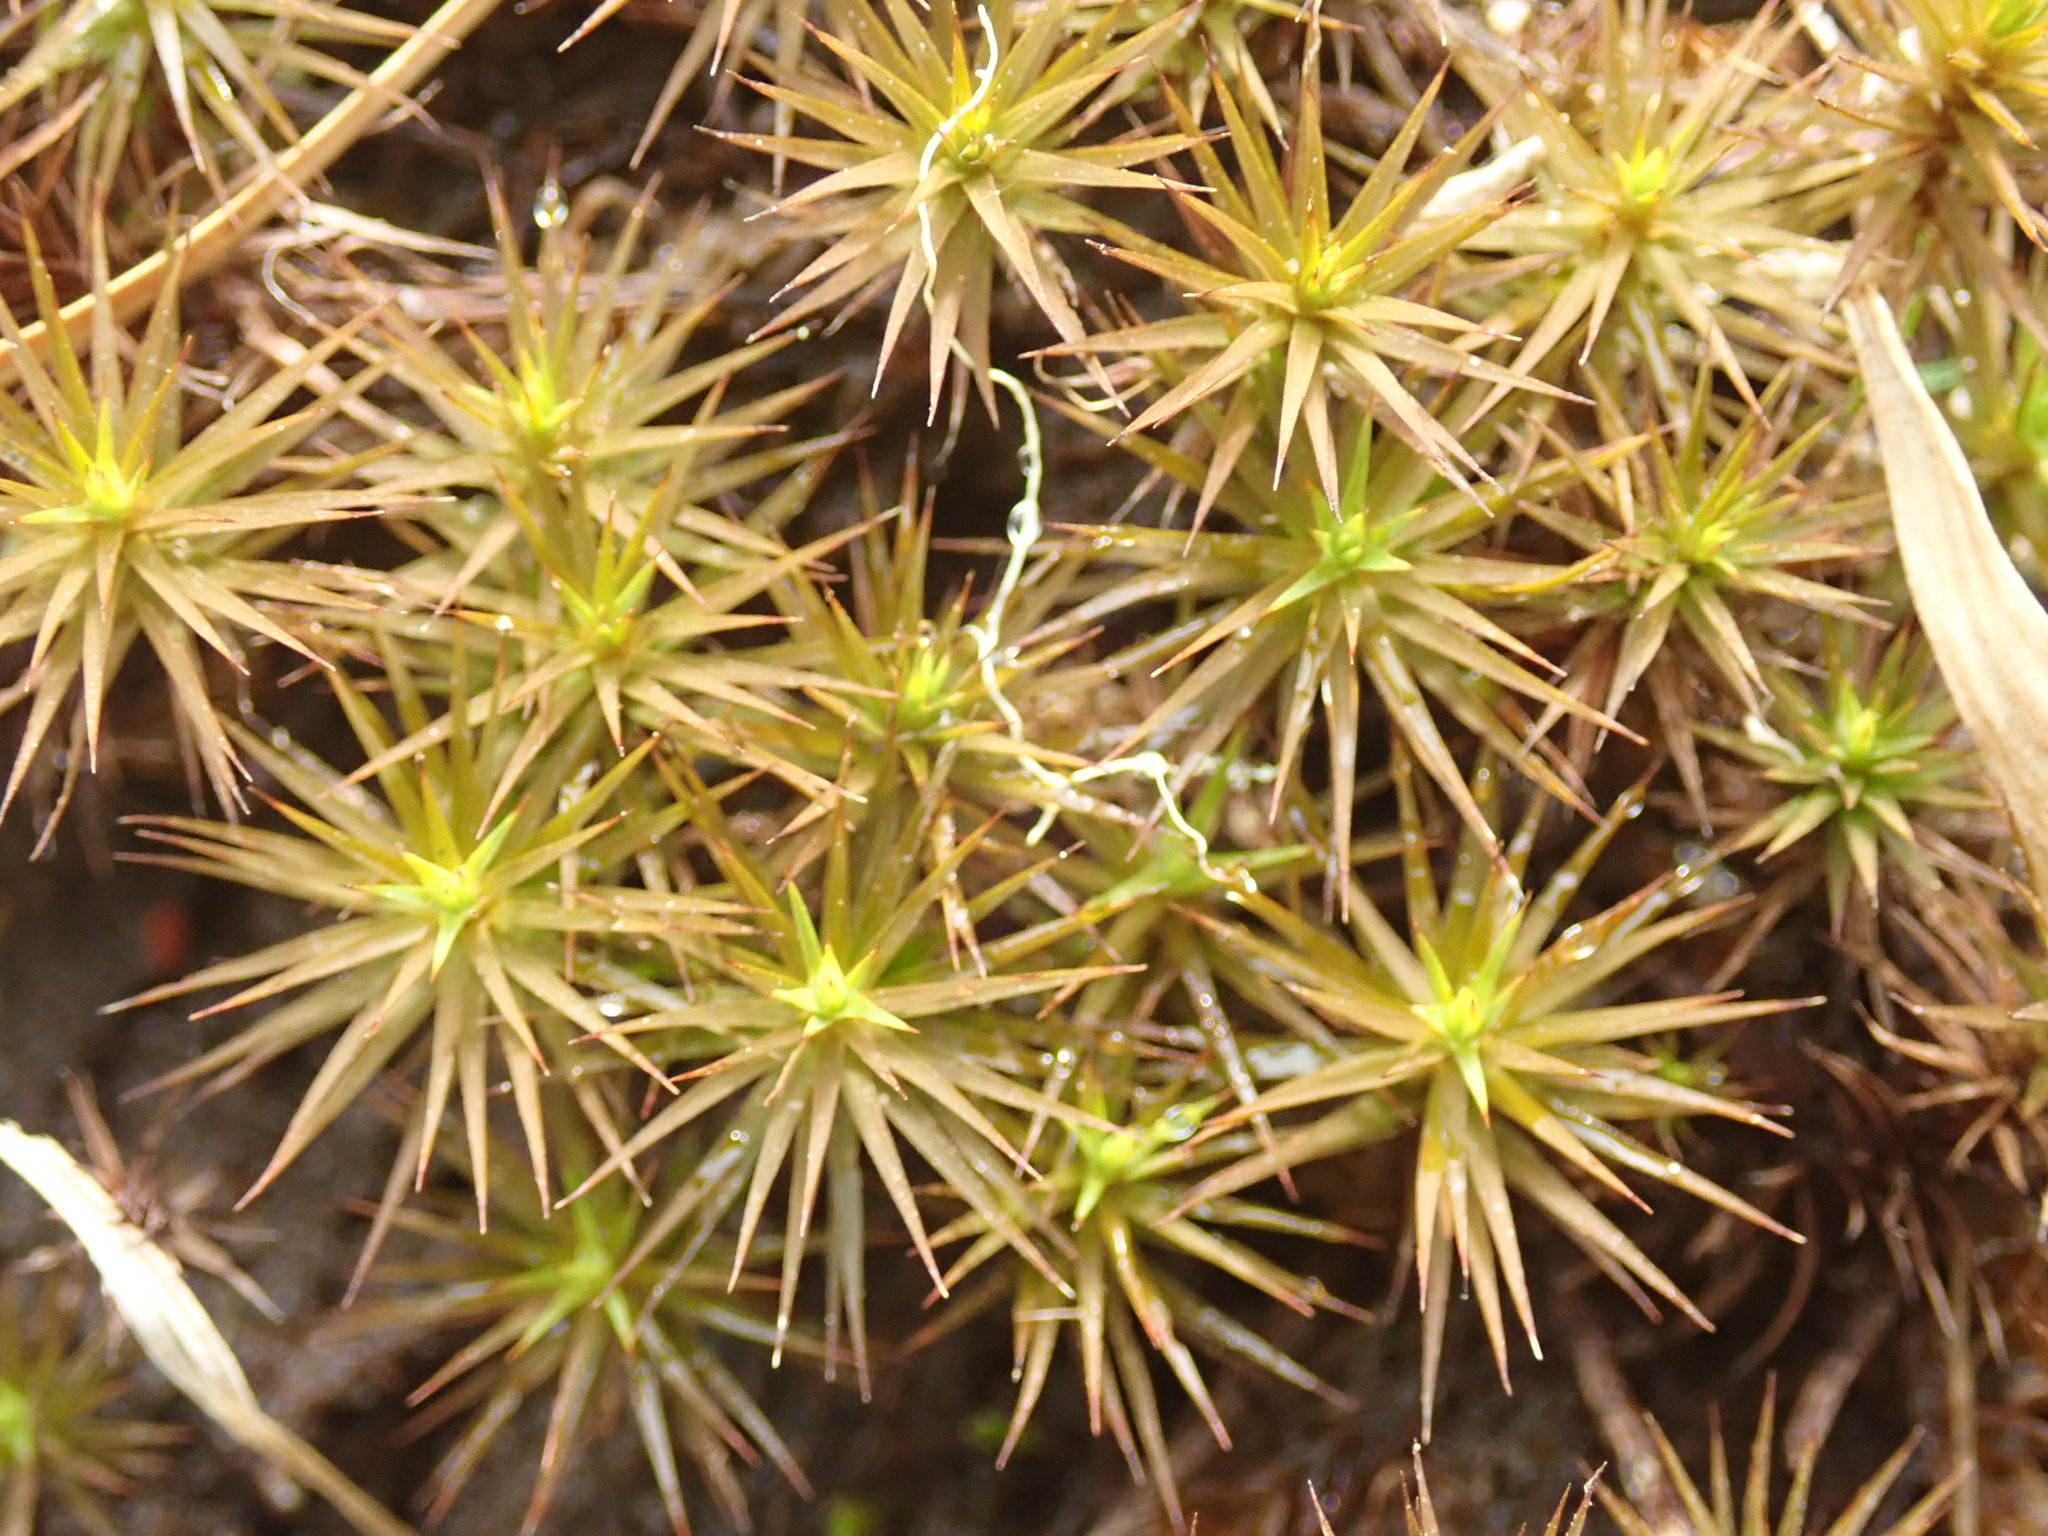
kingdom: Plantae
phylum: Bryophyta
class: Polytrichopsida
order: Polytrichales
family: Polytrichaceae
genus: Polytrichum
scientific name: Polytrichum commune
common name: Common haircap
